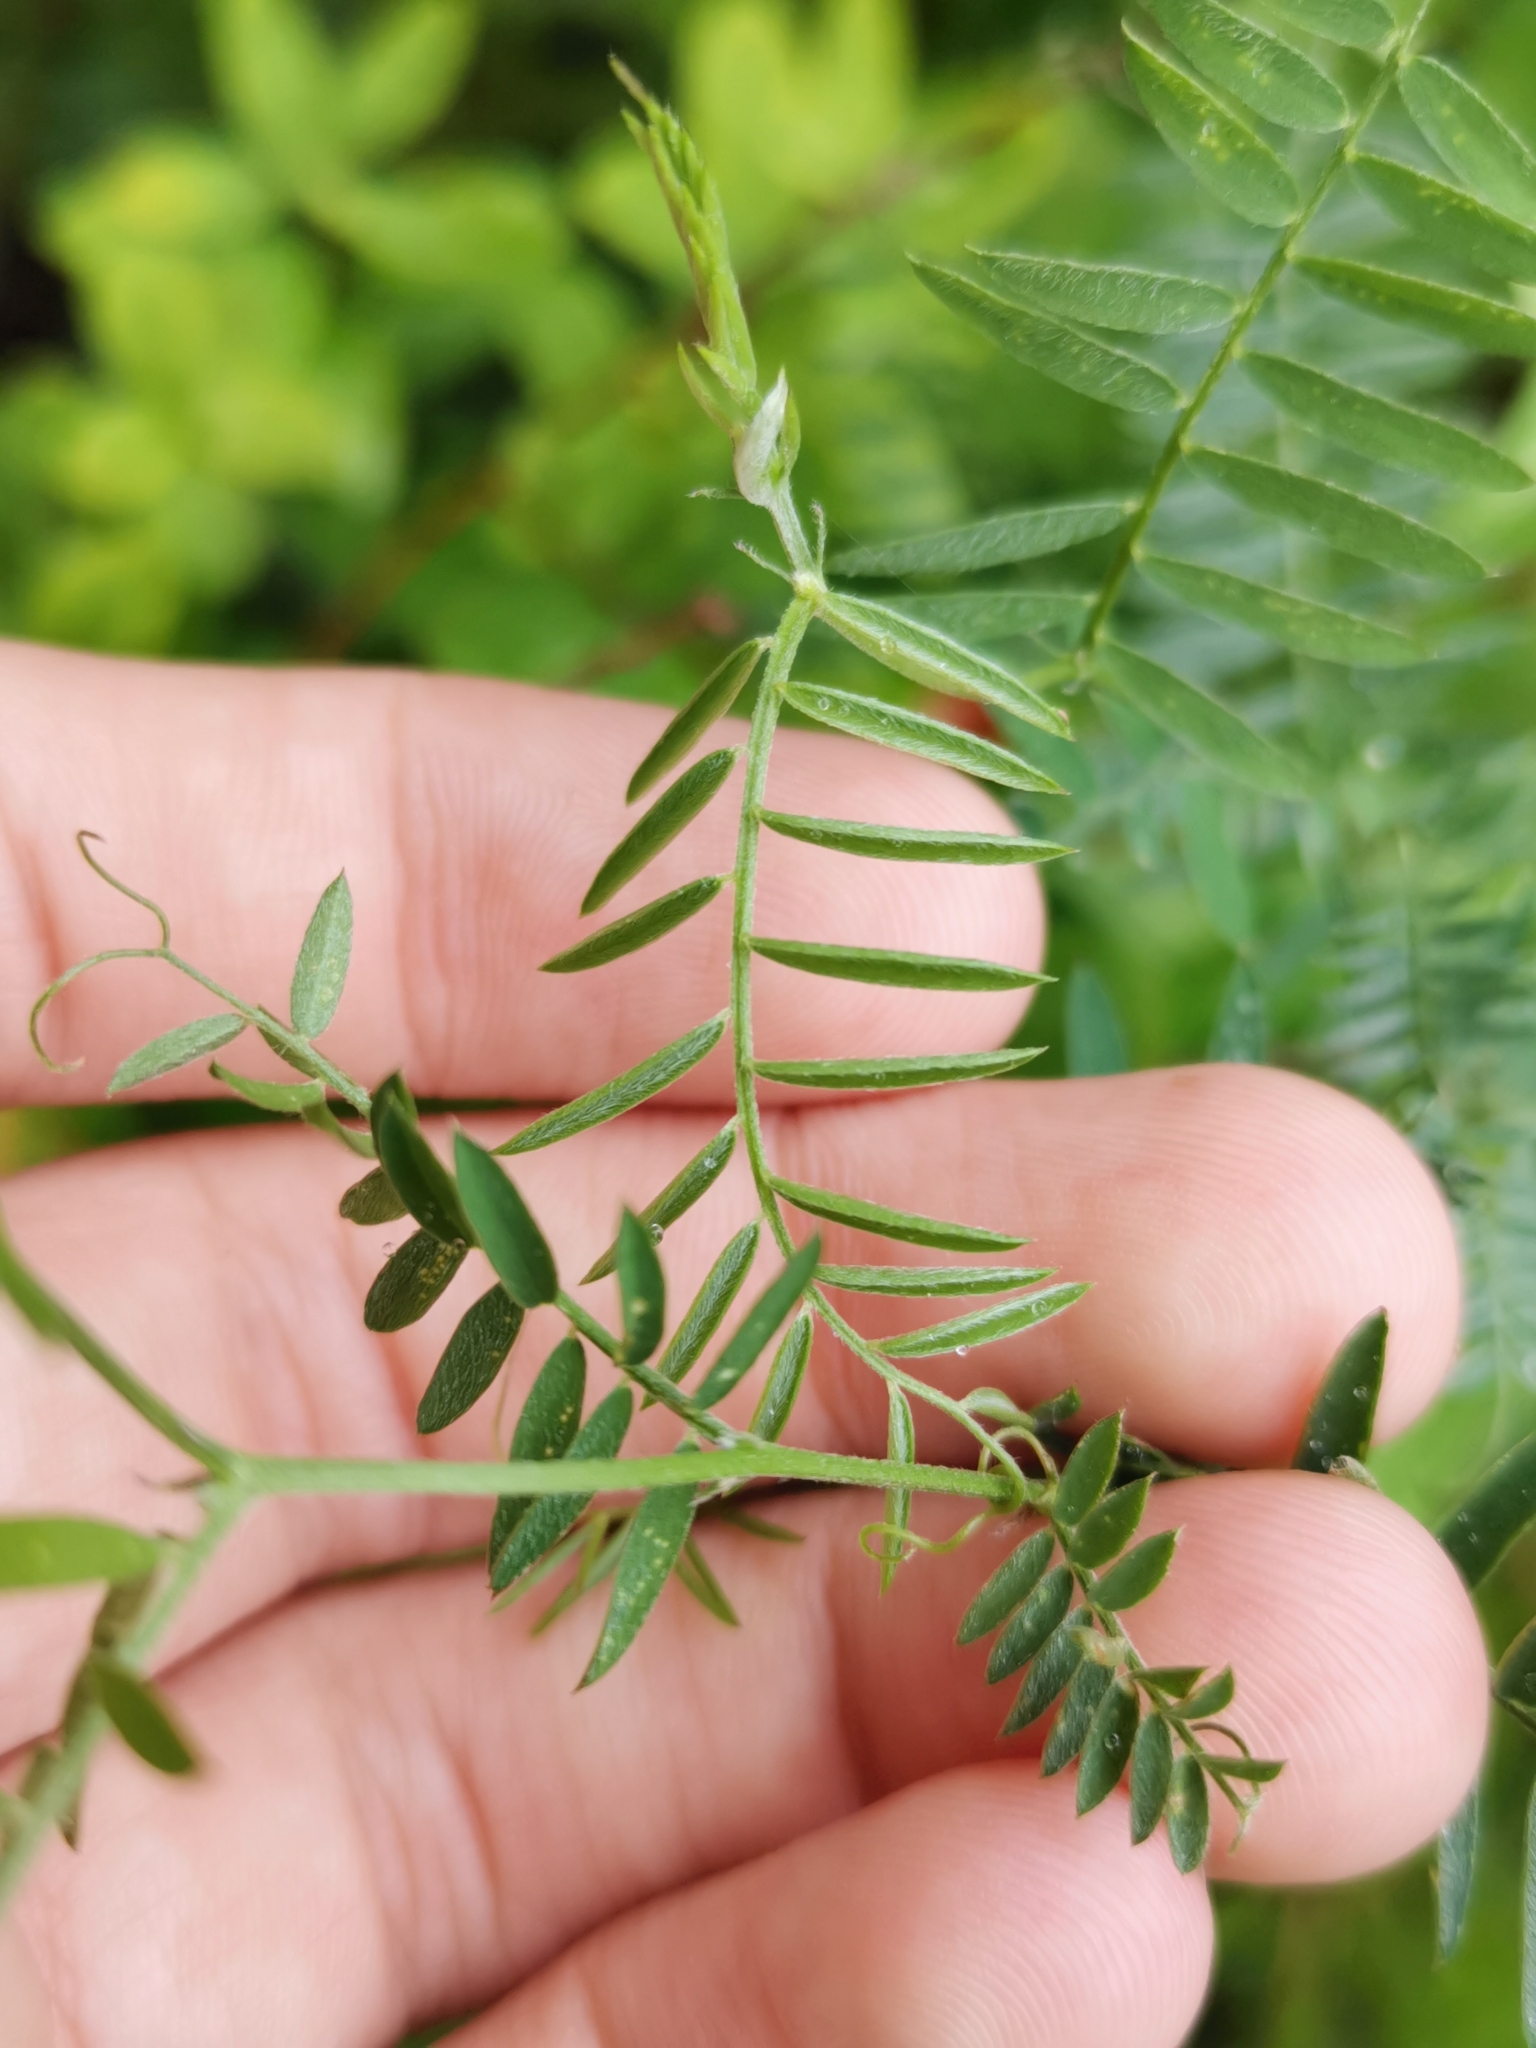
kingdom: Plantae
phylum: Tracheophyta
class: Magnoliopsida
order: Fabales
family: Fabaceae
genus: Vicia
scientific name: Vicia cracca
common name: Bird vetch
